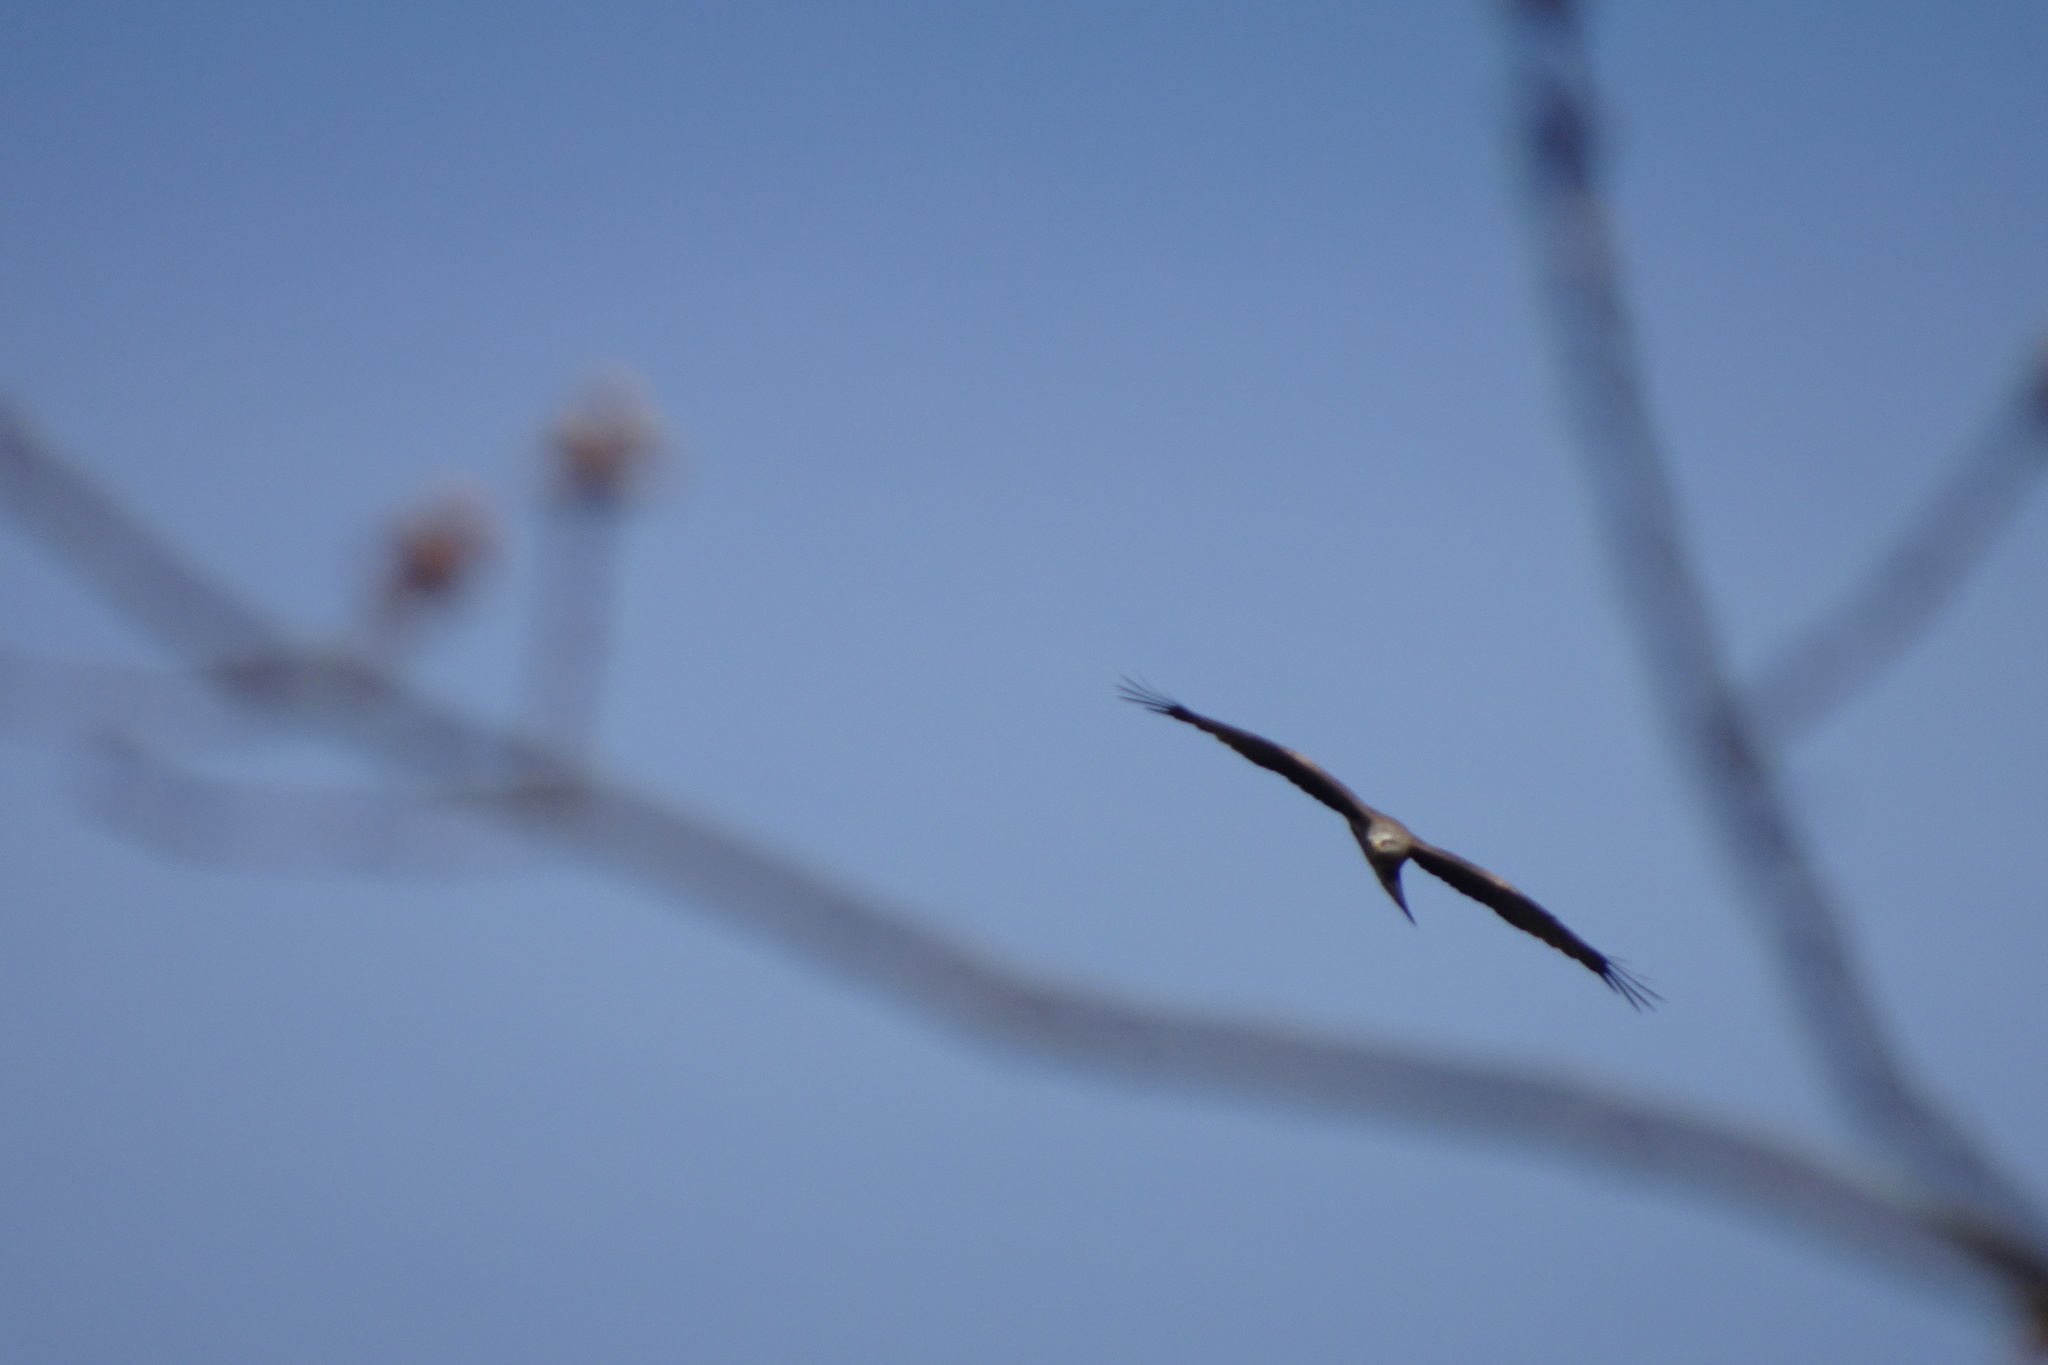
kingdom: Animalia
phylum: Chordata
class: Aves
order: Accipitriformes
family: Accipitridae
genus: Milvus
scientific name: Milvus migrans
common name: Black kite
